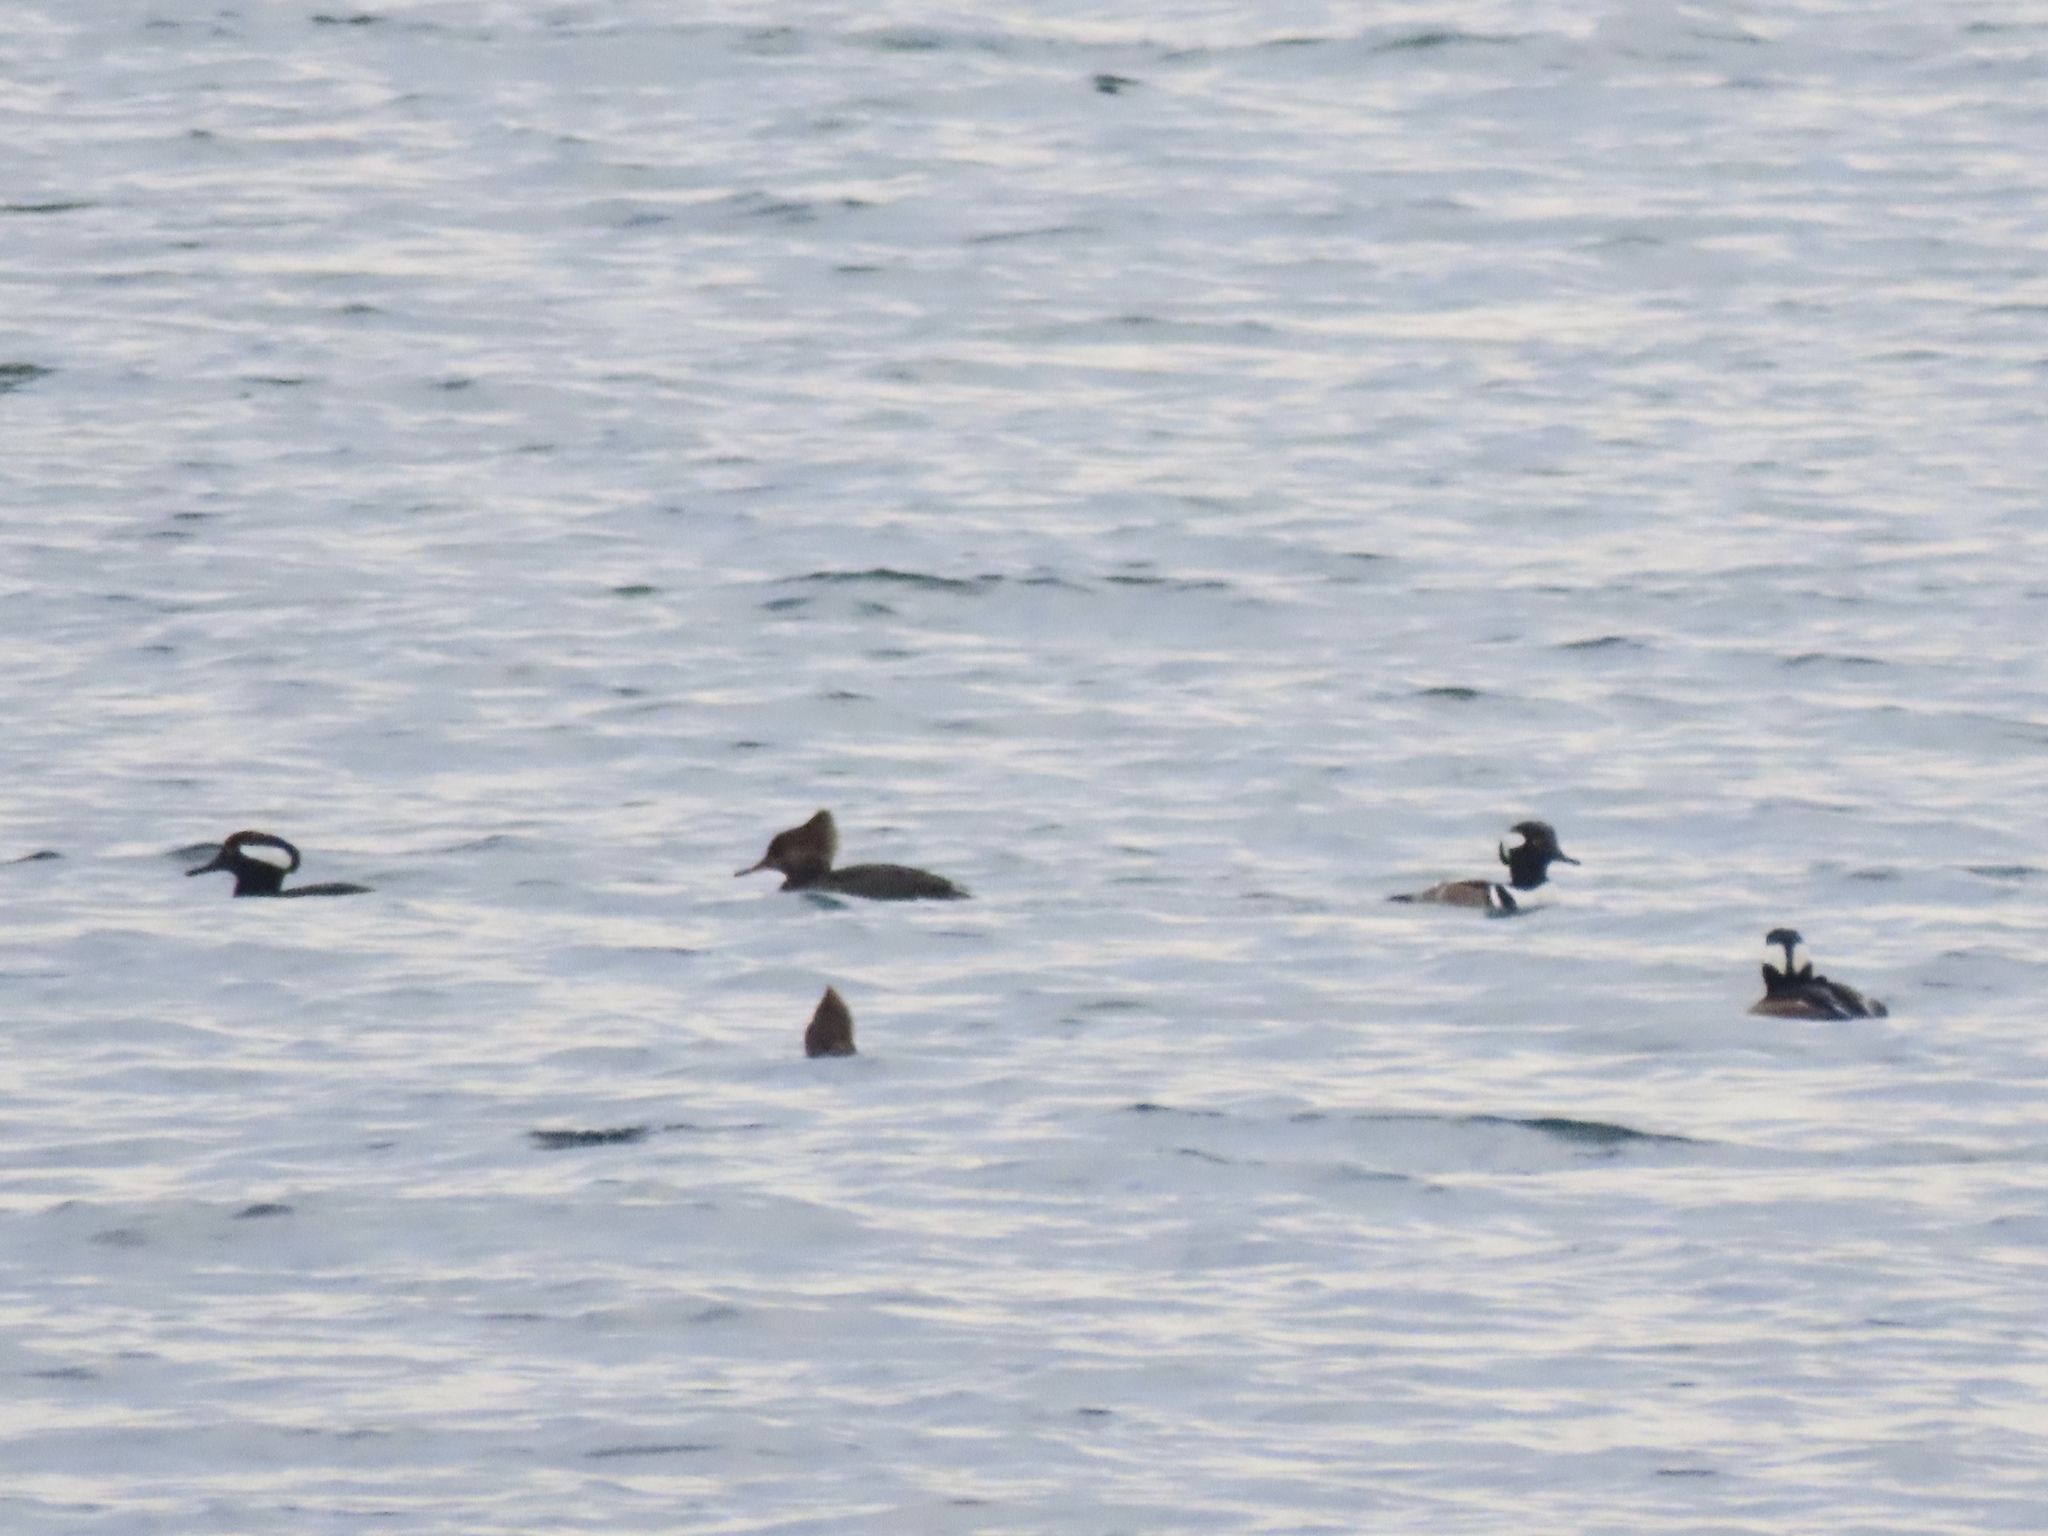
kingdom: Animalia
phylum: Chordata
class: Aves
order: Anseriformes
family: Anatidae
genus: Lophodytes
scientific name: Lophodytes cucullatus
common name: Hooded merganser
